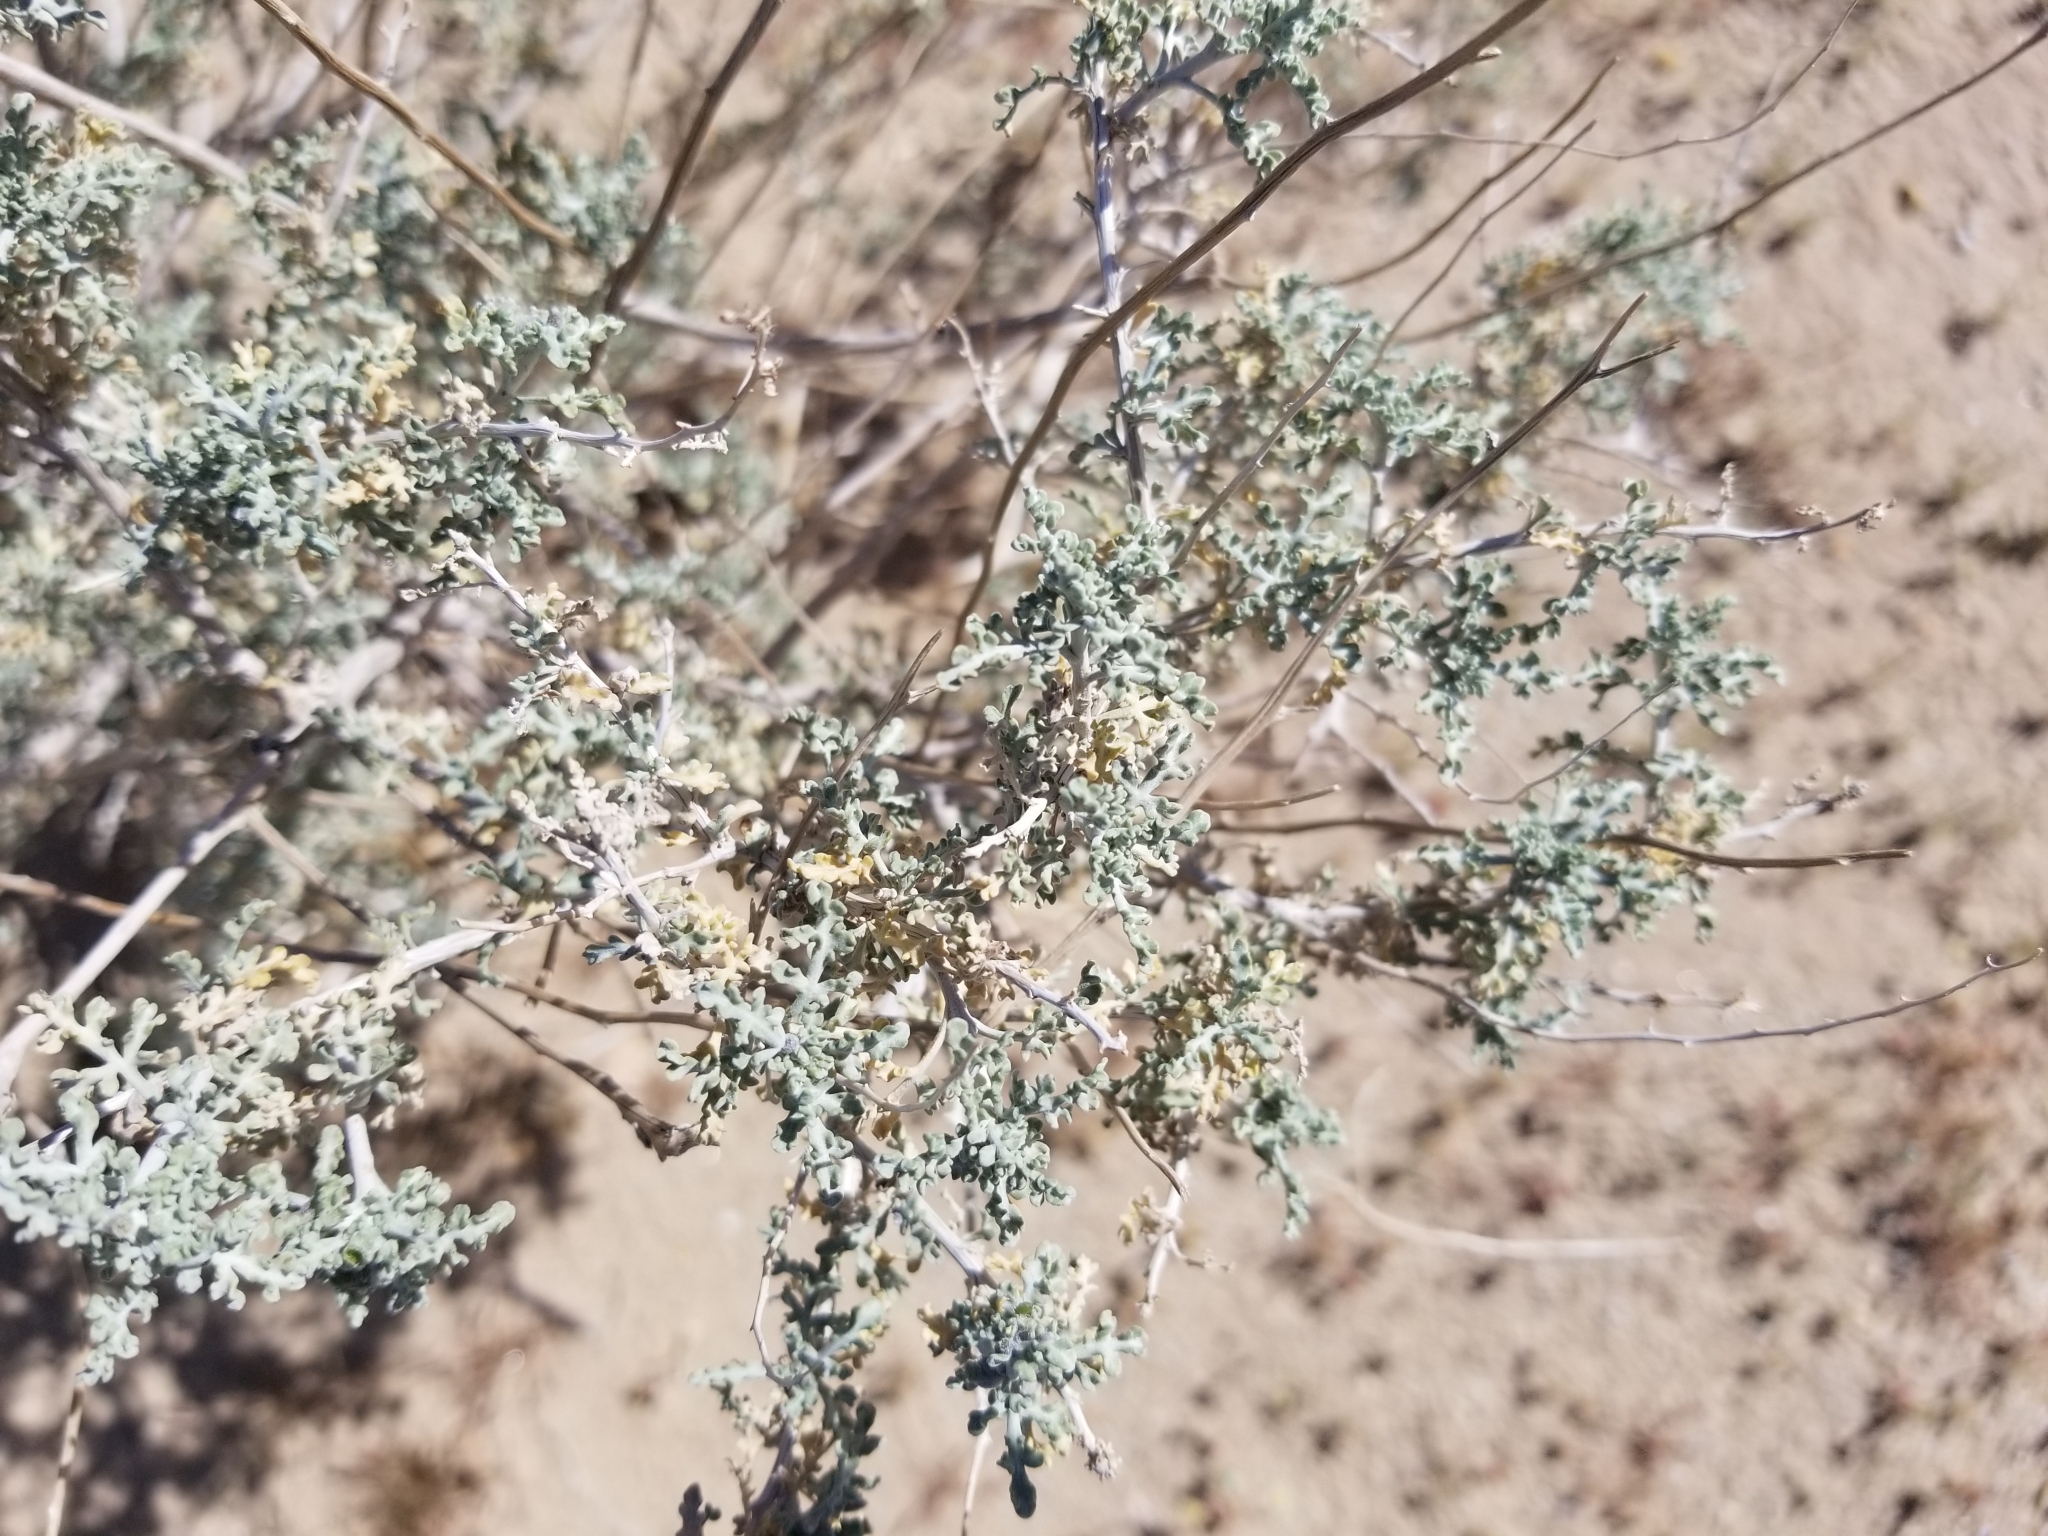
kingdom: Plantae
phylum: Tracheophyta
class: Magnoliopsida
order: Asterales
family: Asteraceae
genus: Ambrosia
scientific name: Ambrosia dumosa
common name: Bur-sage
